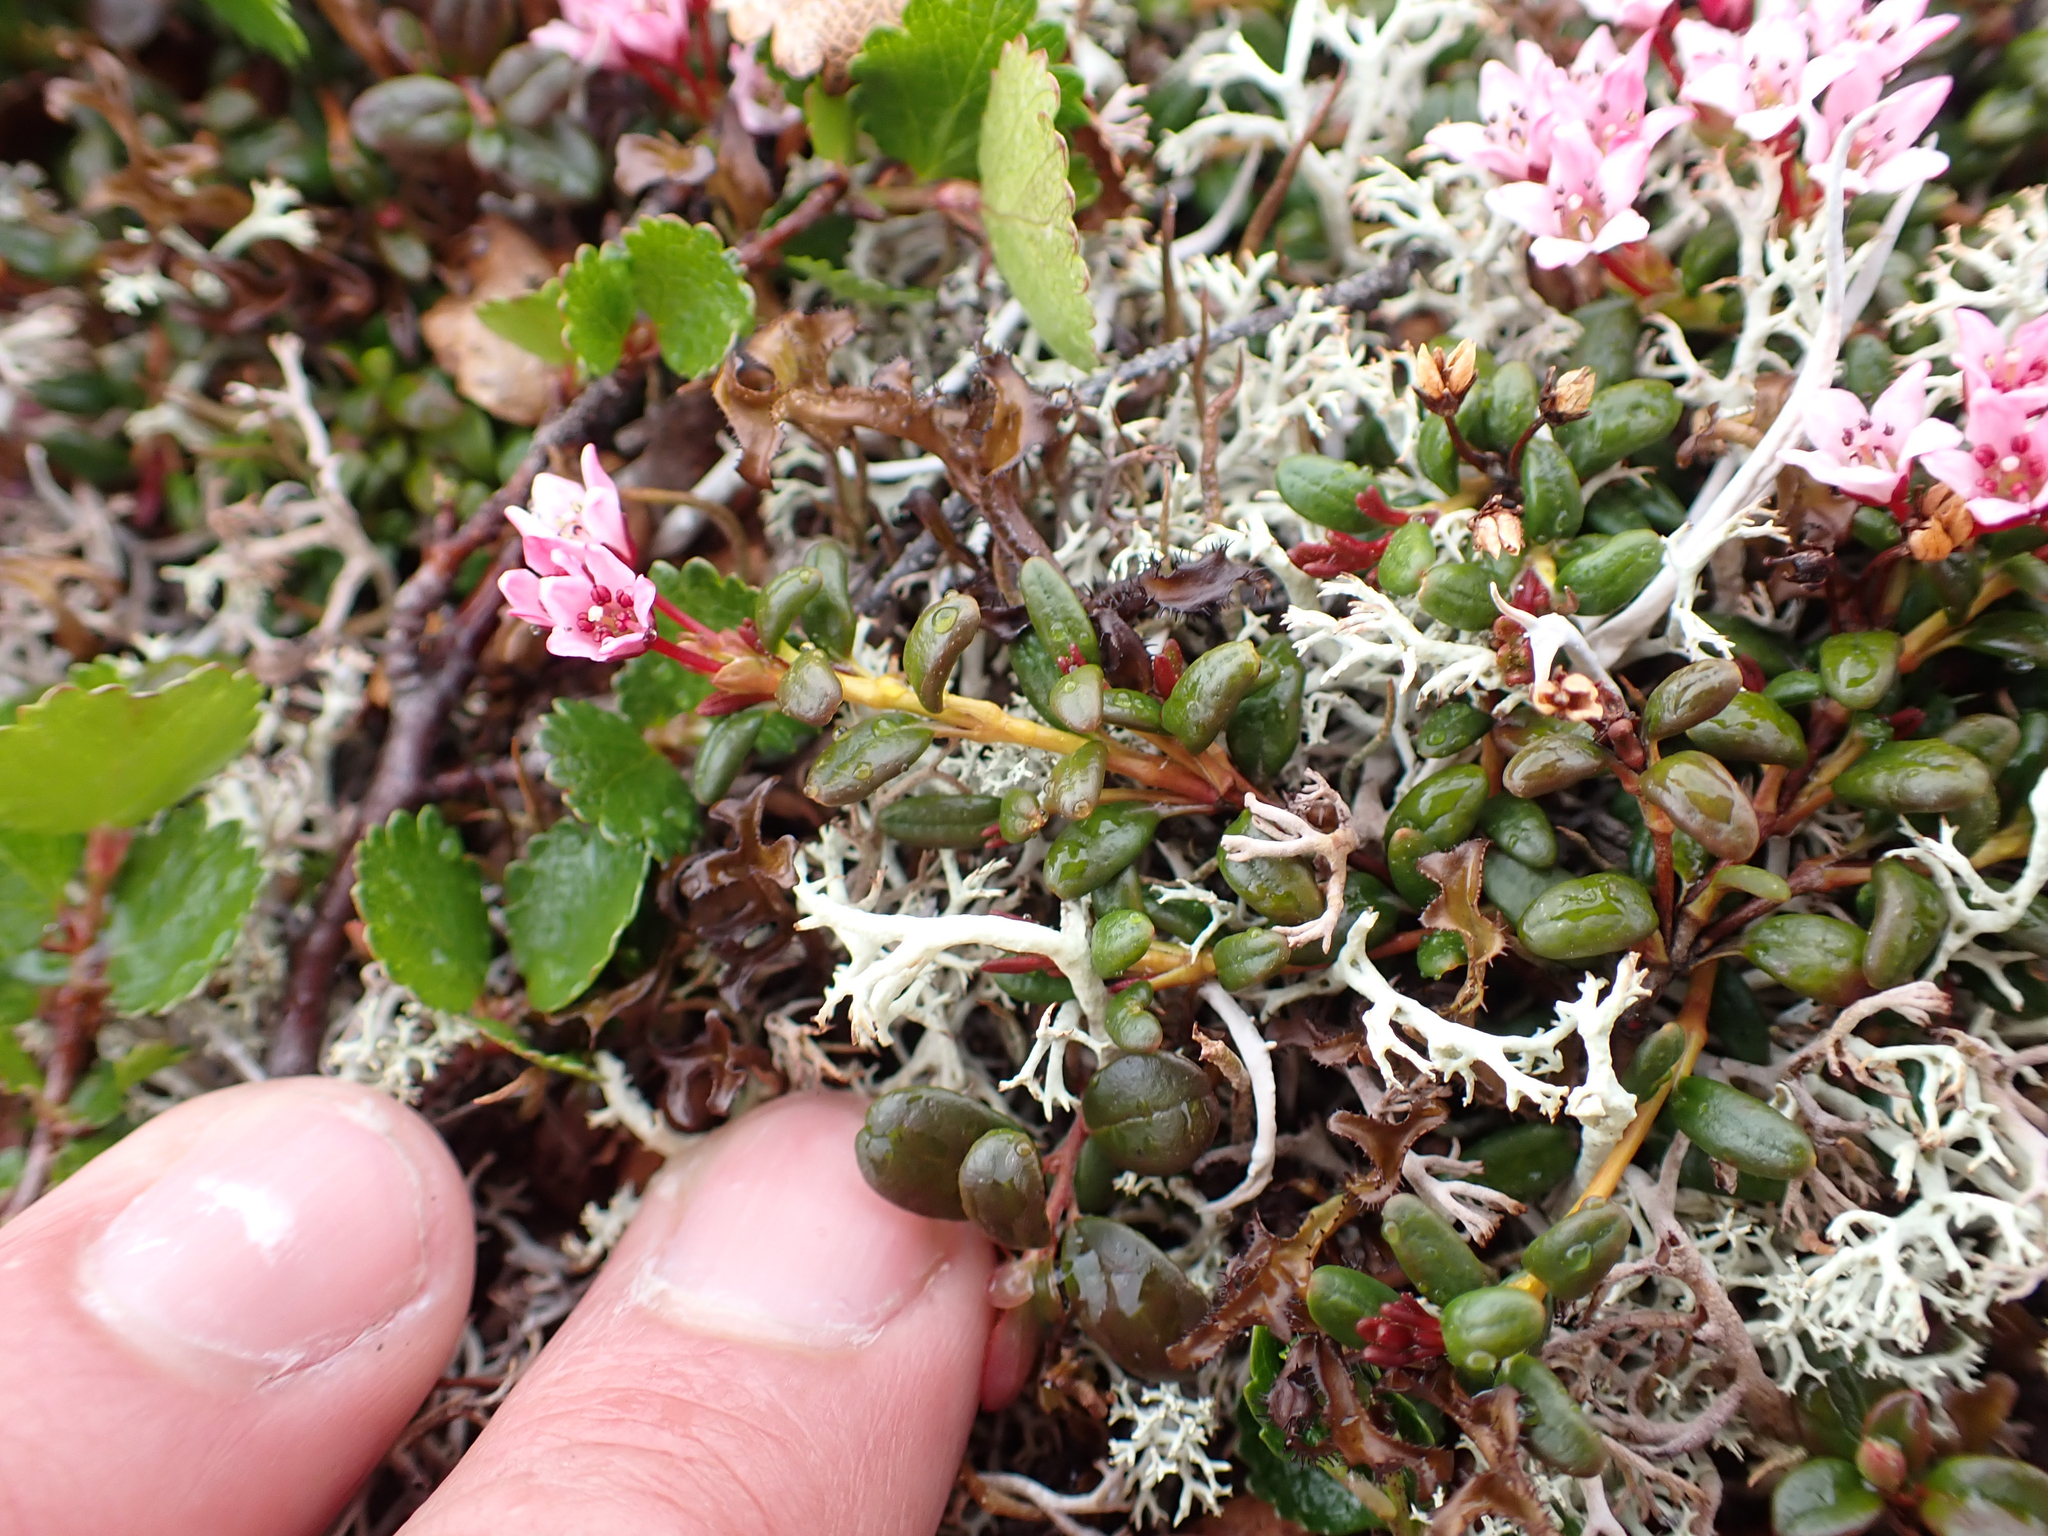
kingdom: Plantae
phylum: Tracheophyta
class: Magnoliopsida
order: Ericales
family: Ericaceae
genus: Kalmia
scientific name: Kalmia procumbens
